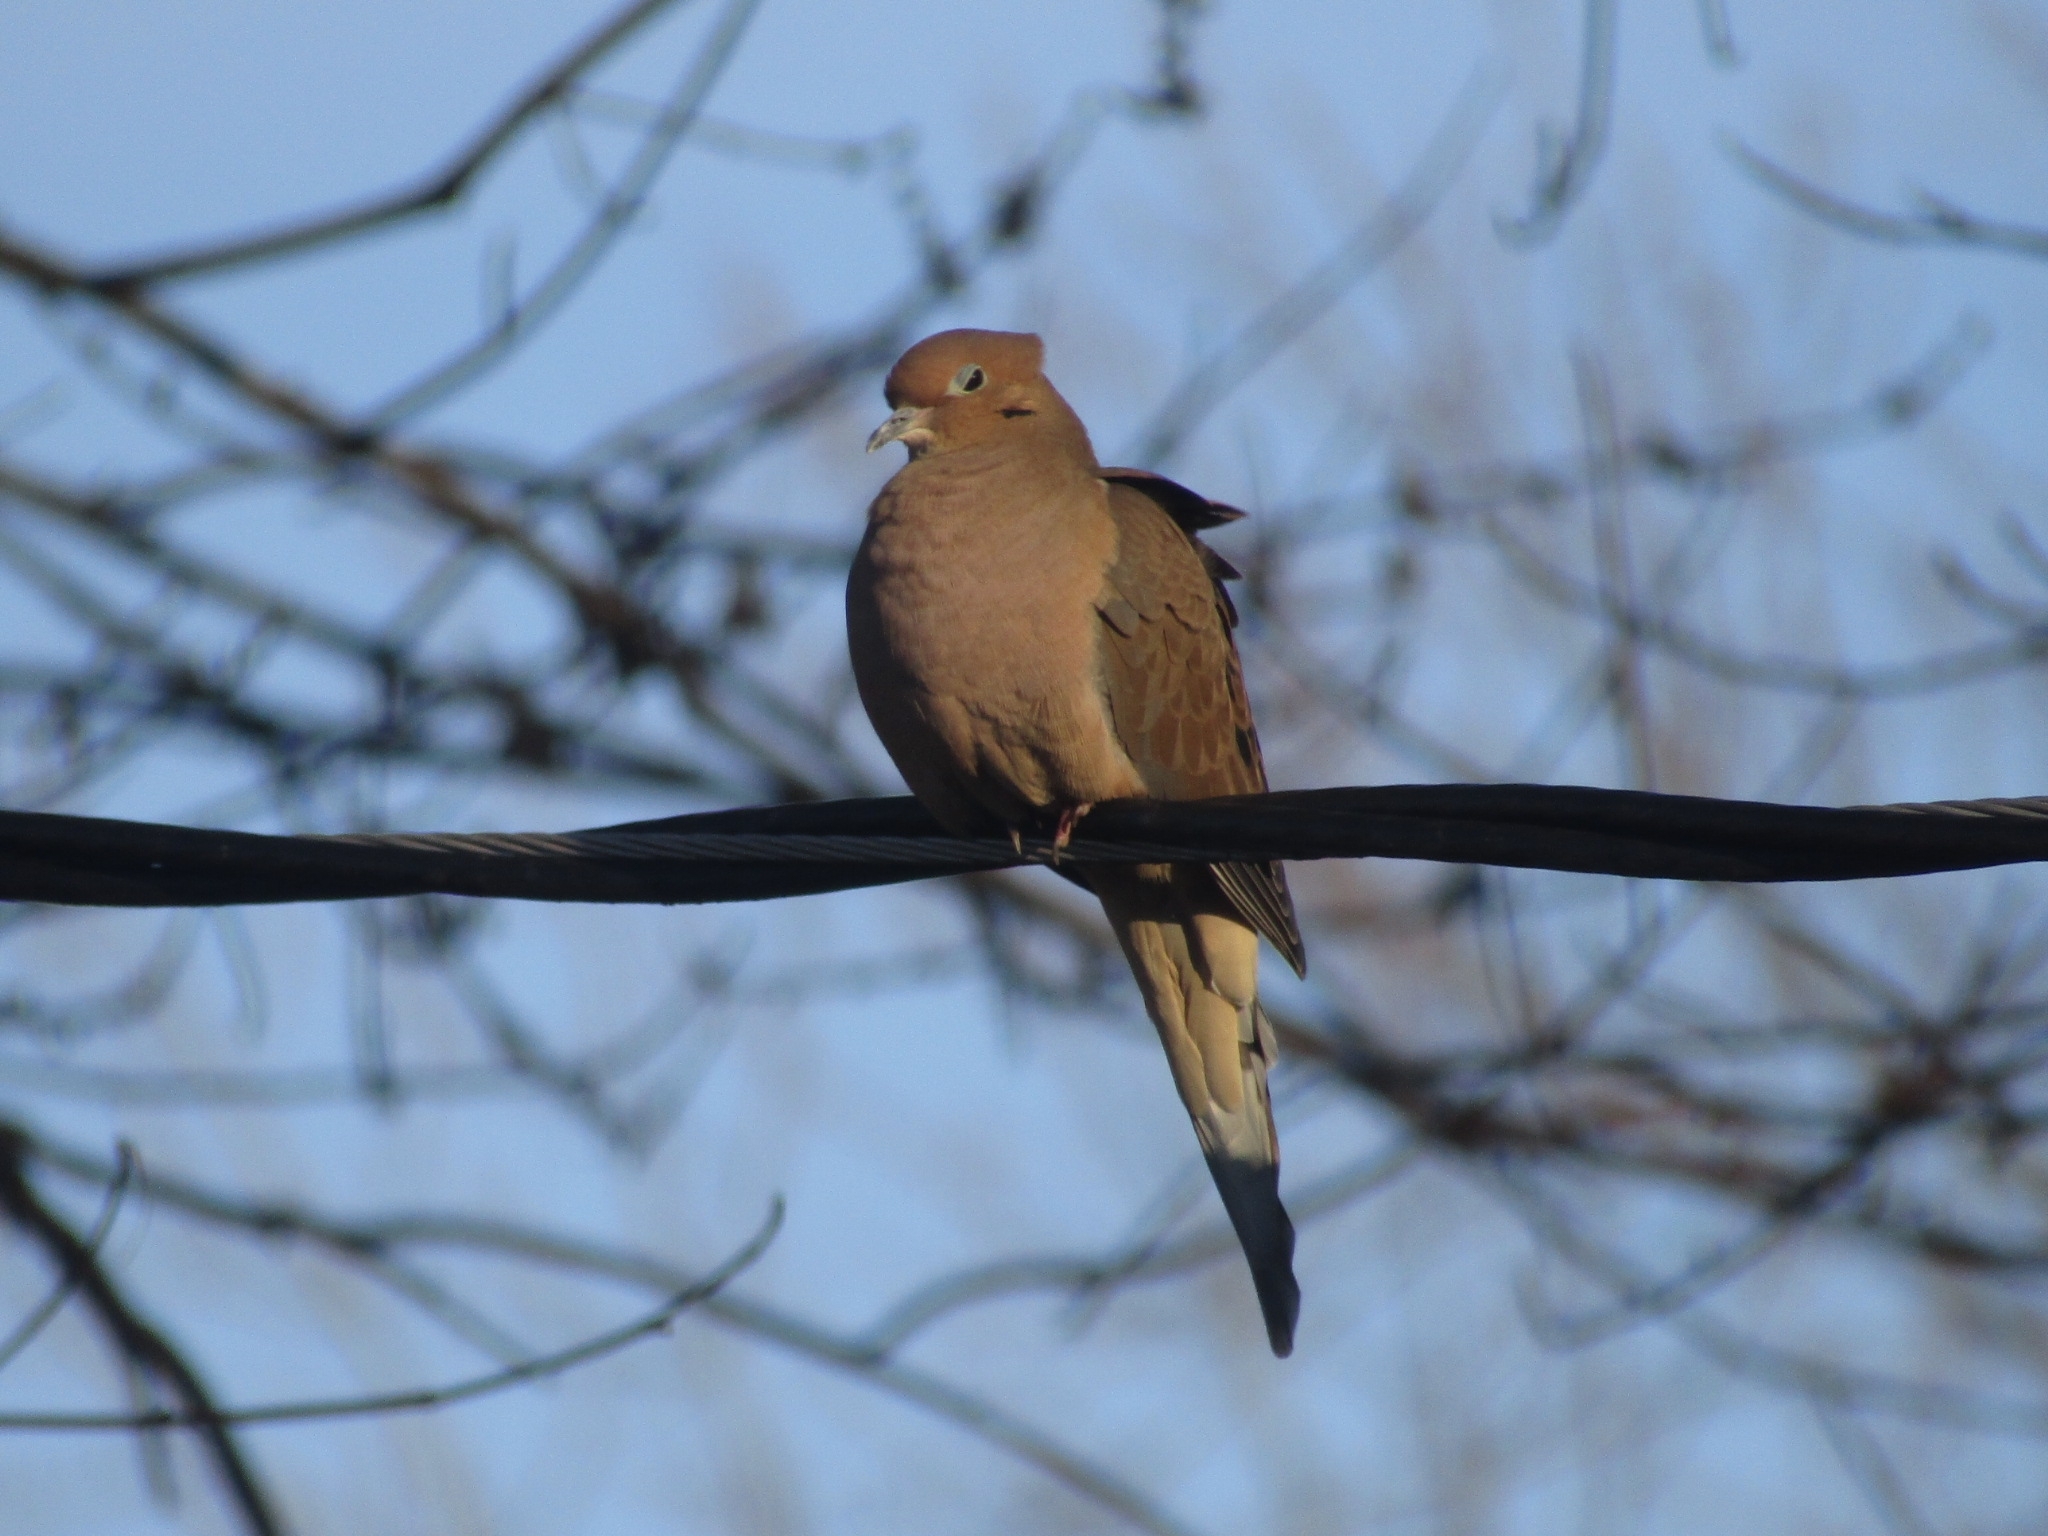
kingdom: Animalia
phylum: Chordata
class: Aves
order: Columbiformes
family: Columbidae
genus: Zenaida
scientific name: Zenaida macroura
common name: Mourning dove
